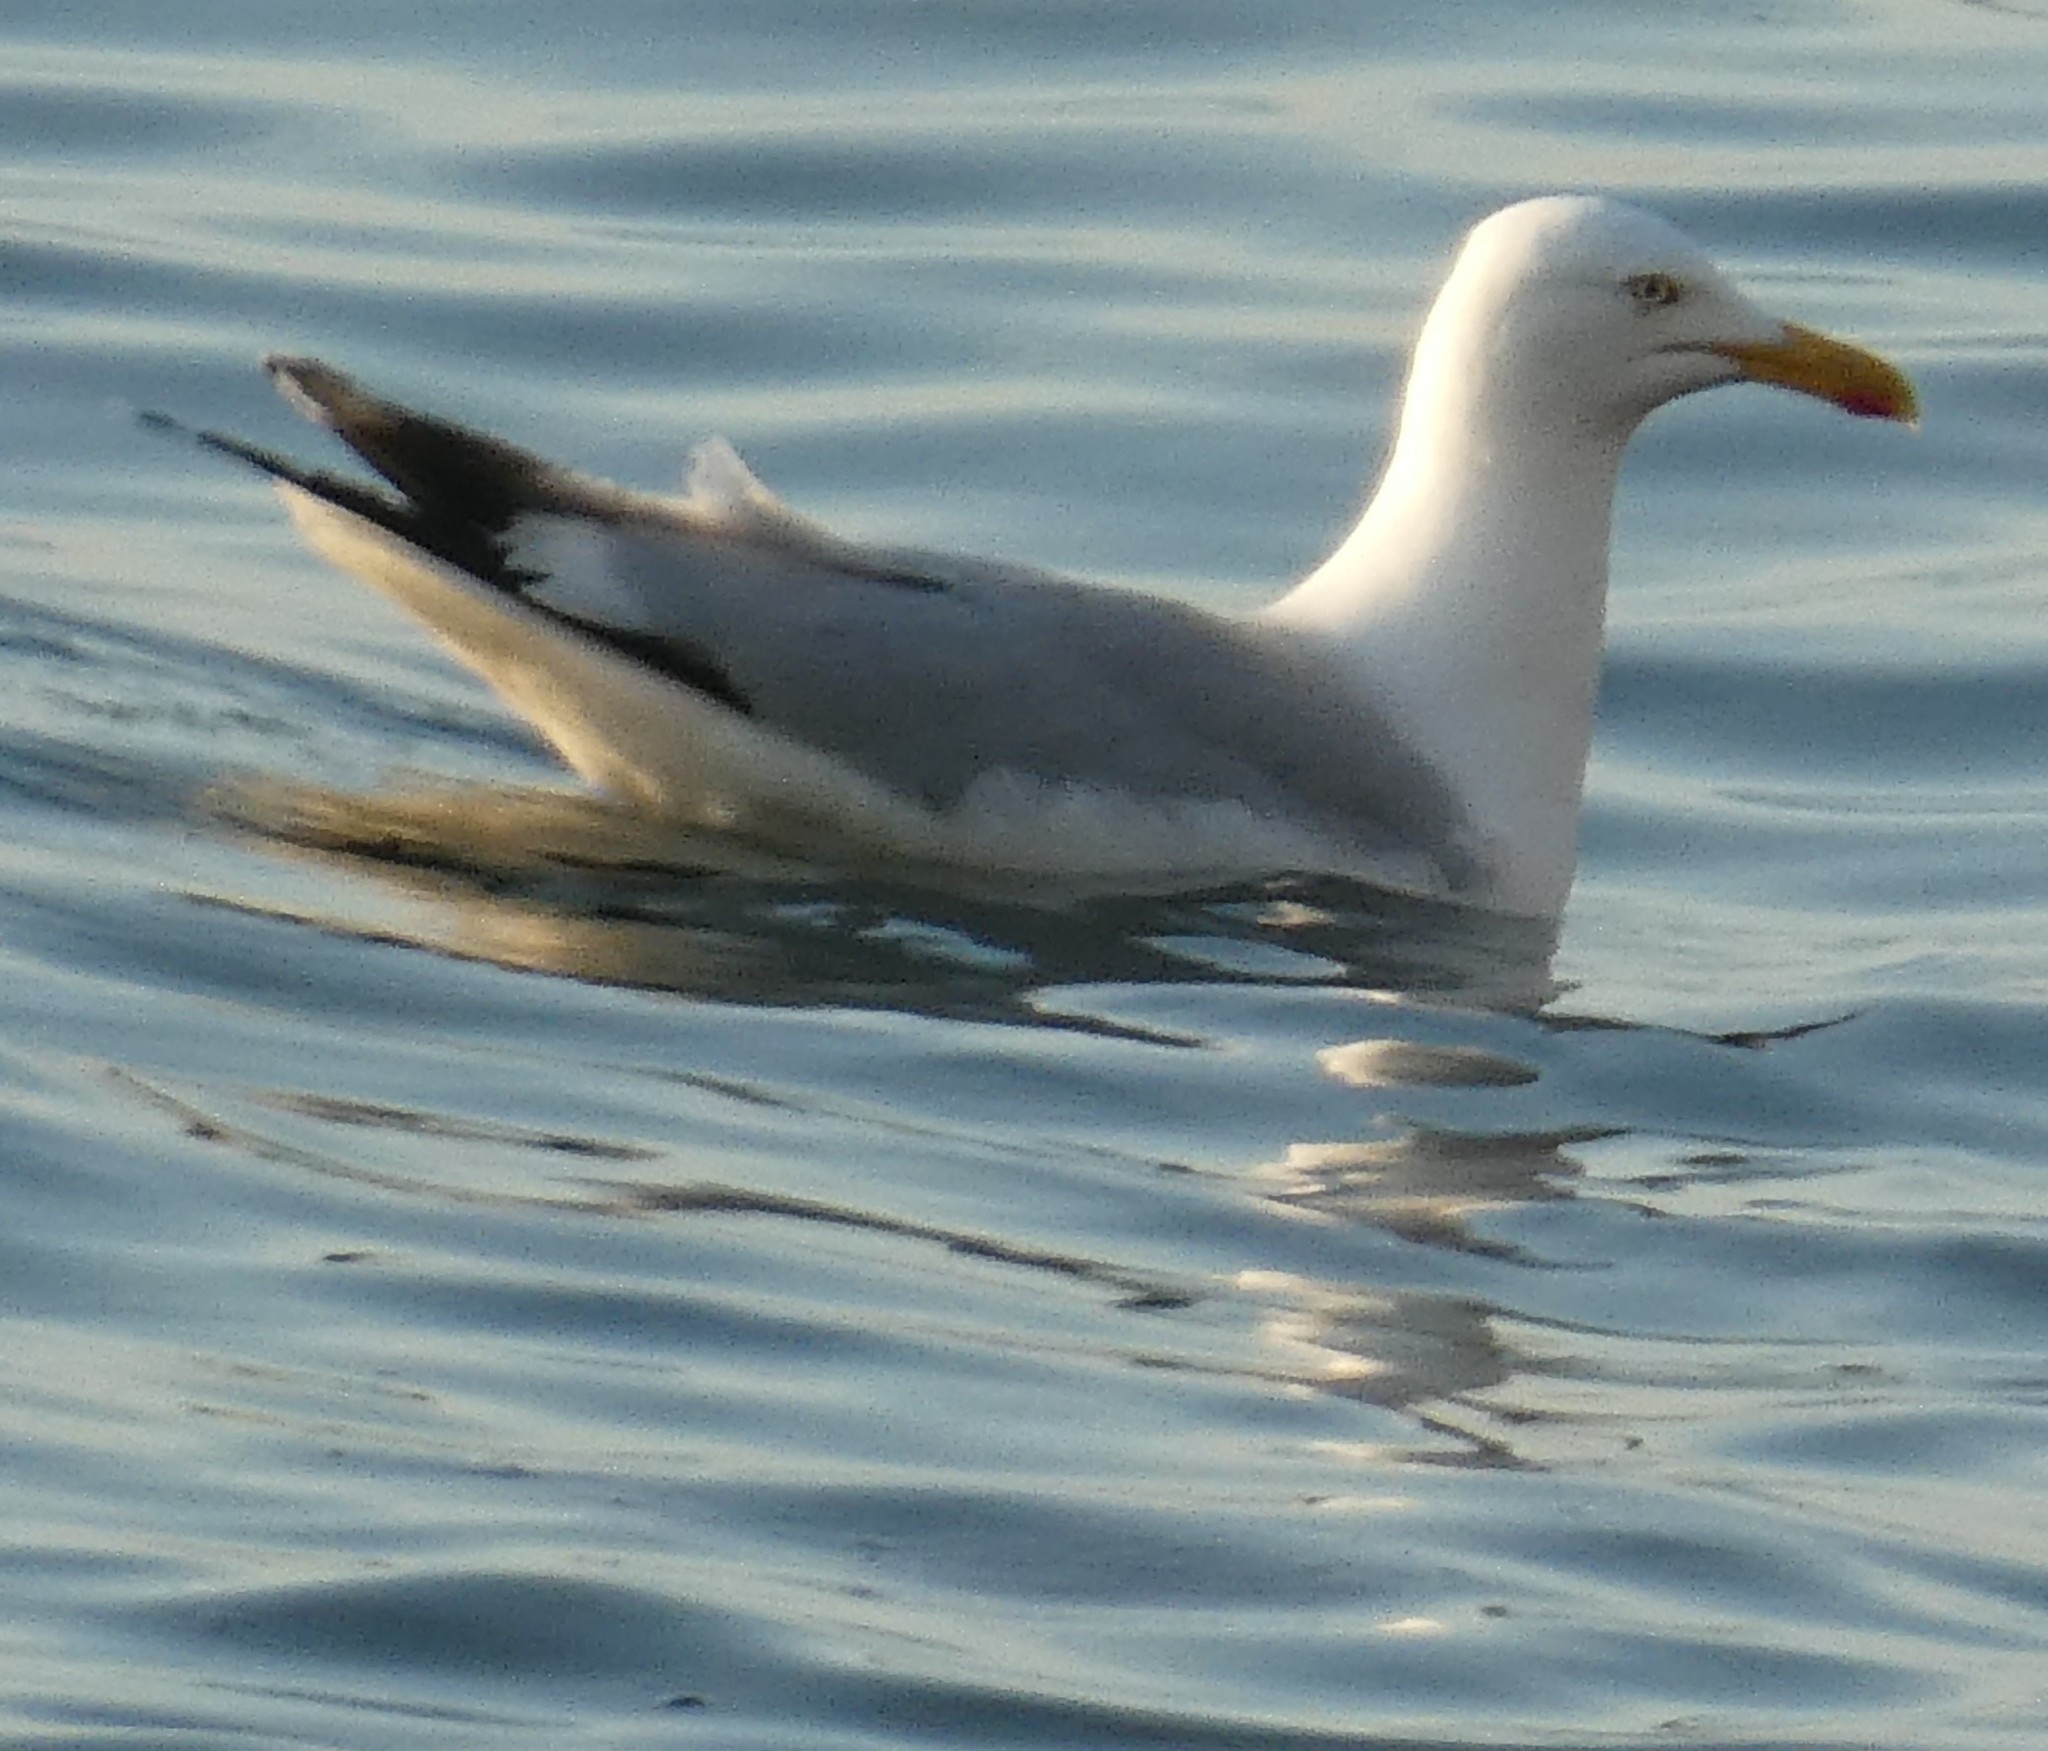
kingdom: Animalia
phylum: Chordata
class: Aves
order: Charadriiformes
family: Laridae
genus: Larus
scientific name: Larus argentatus
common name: Herring gull
